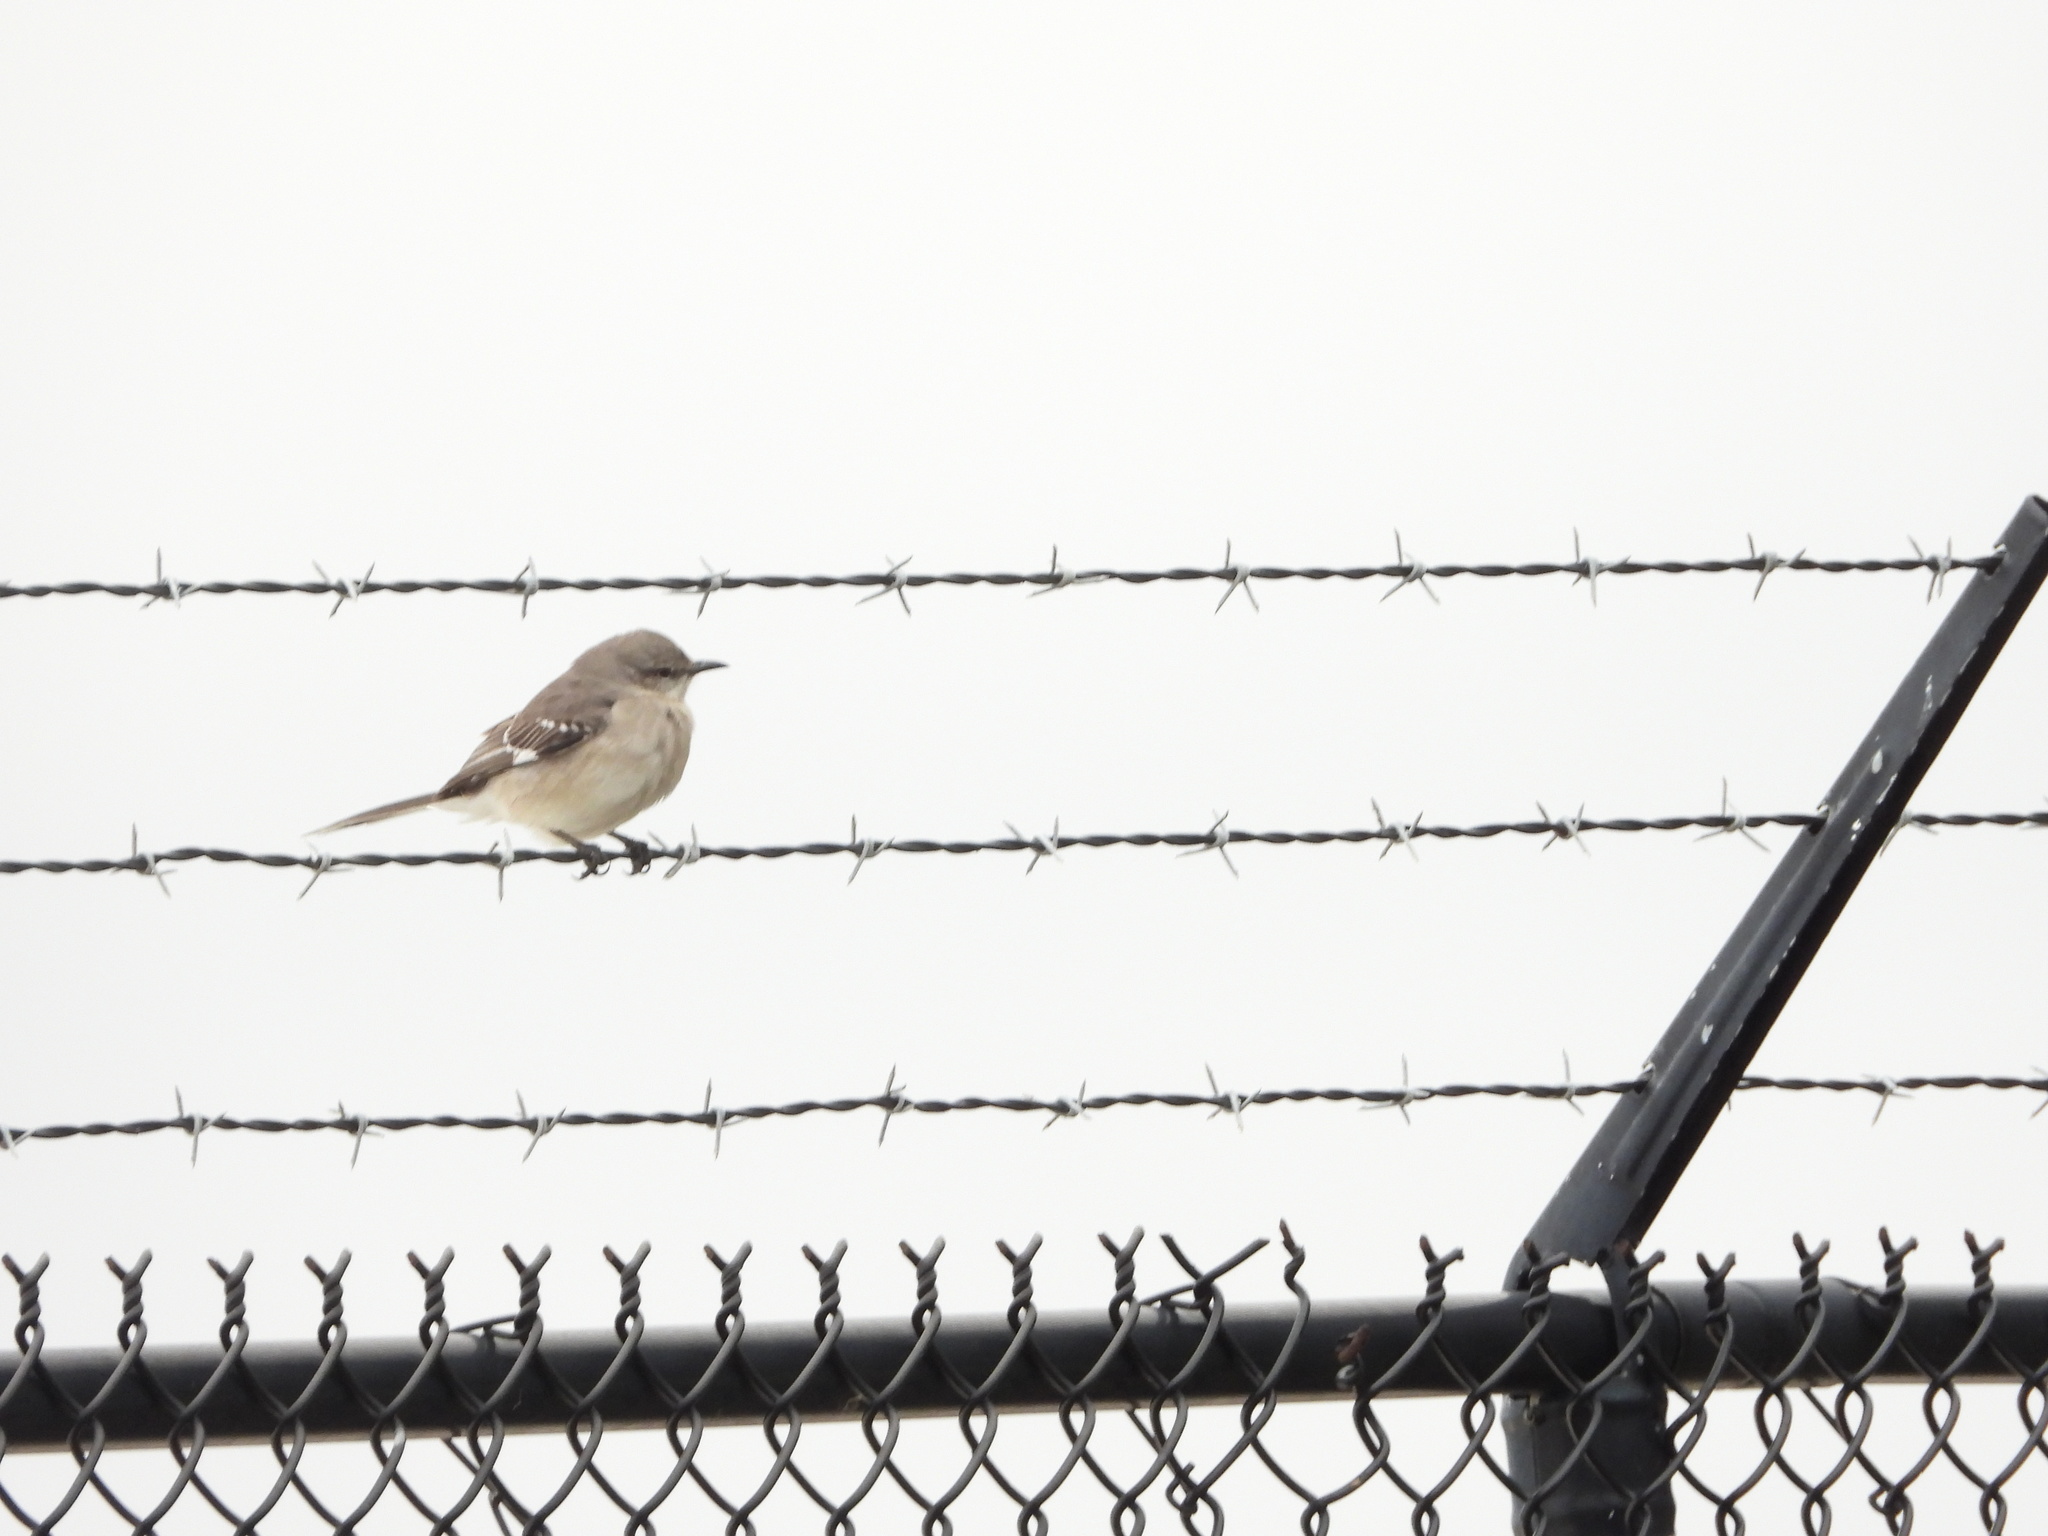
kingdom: Animalia
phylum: Chordata
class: Aves
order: Passeriformes
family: Mimidae
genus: Mimus
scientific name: Mimus polyglottos
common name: Northern mockingbird
